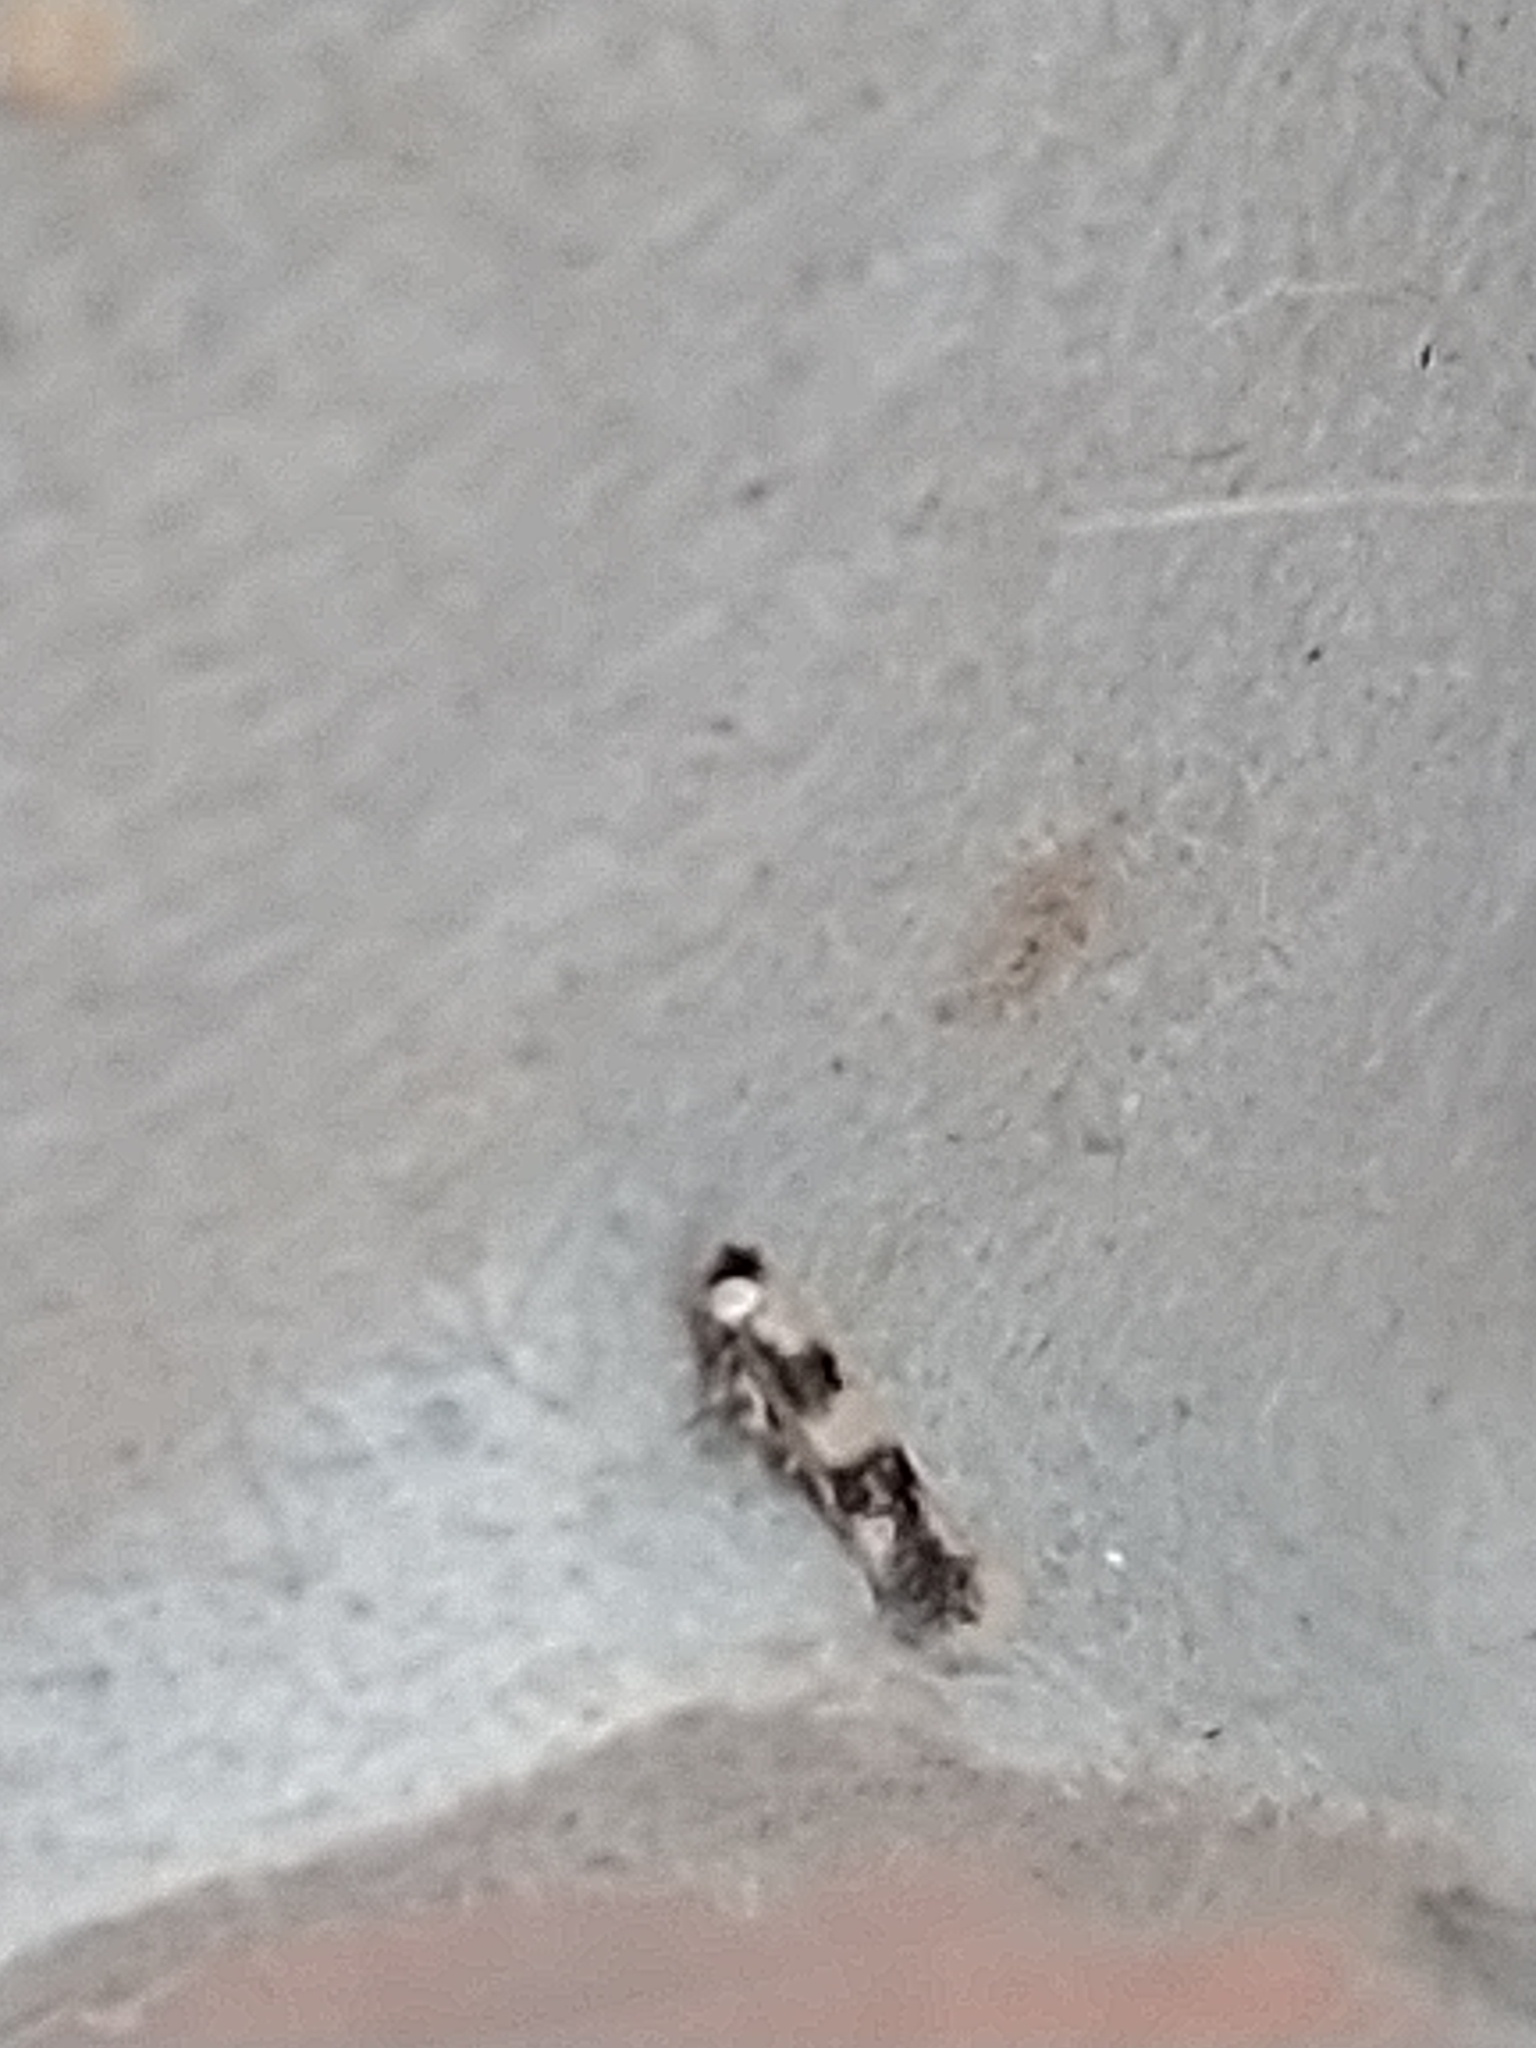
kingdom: Animalia
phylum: Arthropoda
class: Insecta
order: Lepidoptera
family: Nepticulidae
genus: Etainia
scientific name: Etainia decentella
